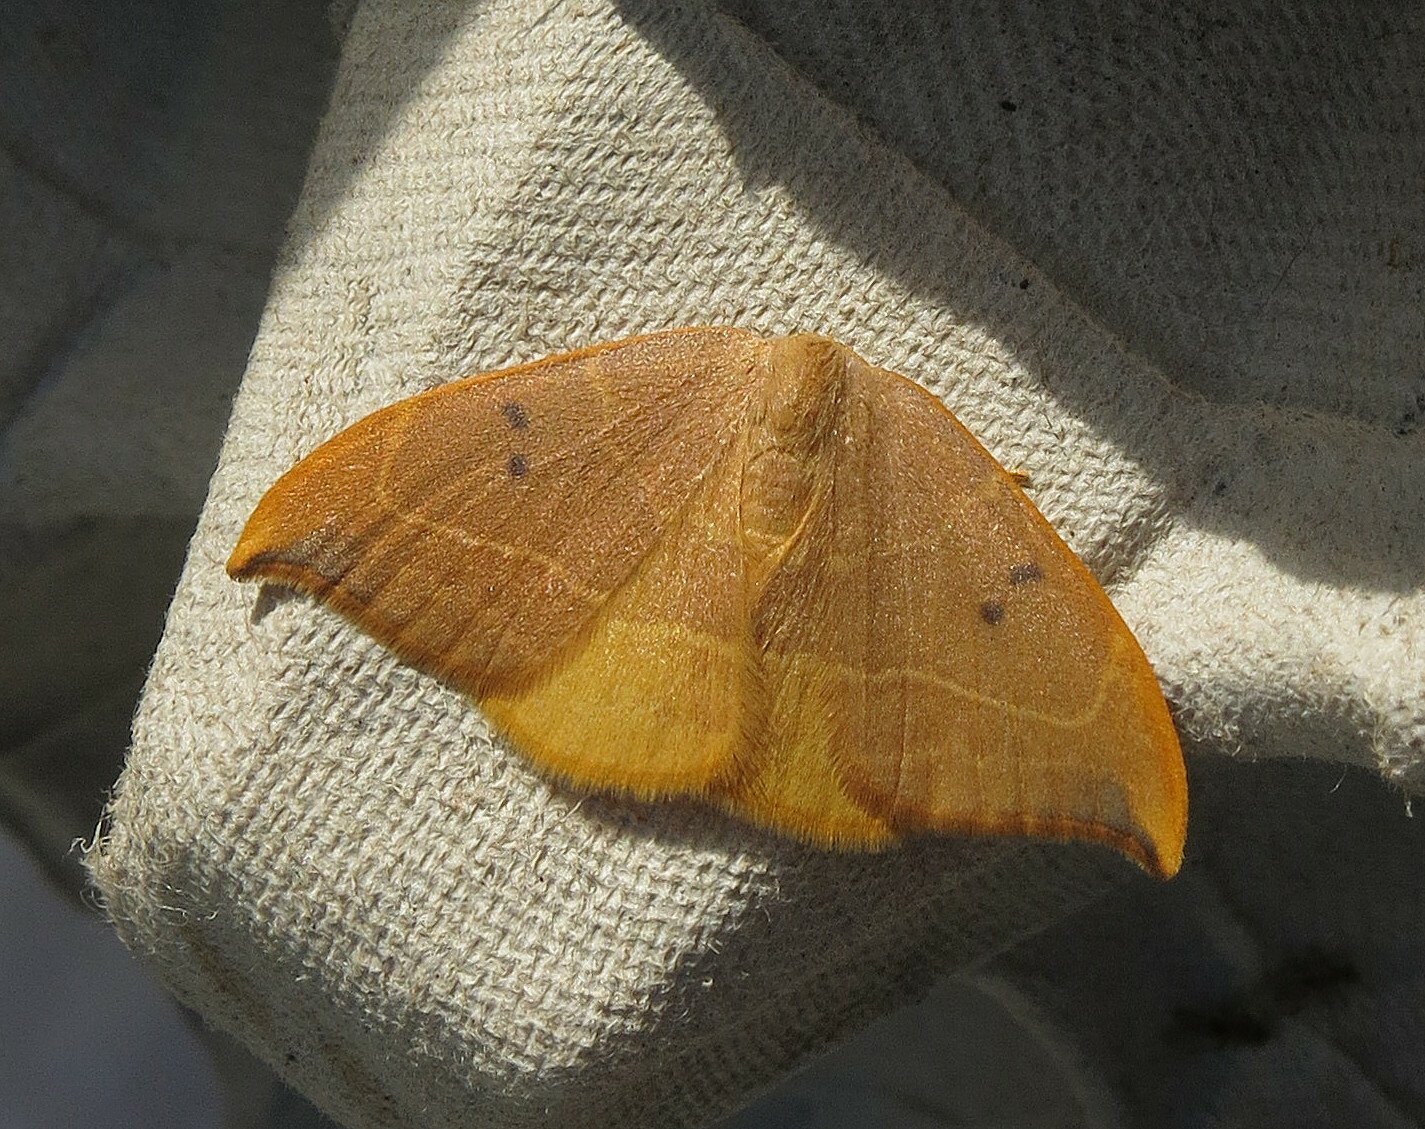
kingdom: Animalia
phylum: Arthropoda
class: Insecta
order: Lepidoptera
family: Drepanidae
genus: Watsonalla
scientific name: Watsonalla binaria
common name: Oak hook-tip
